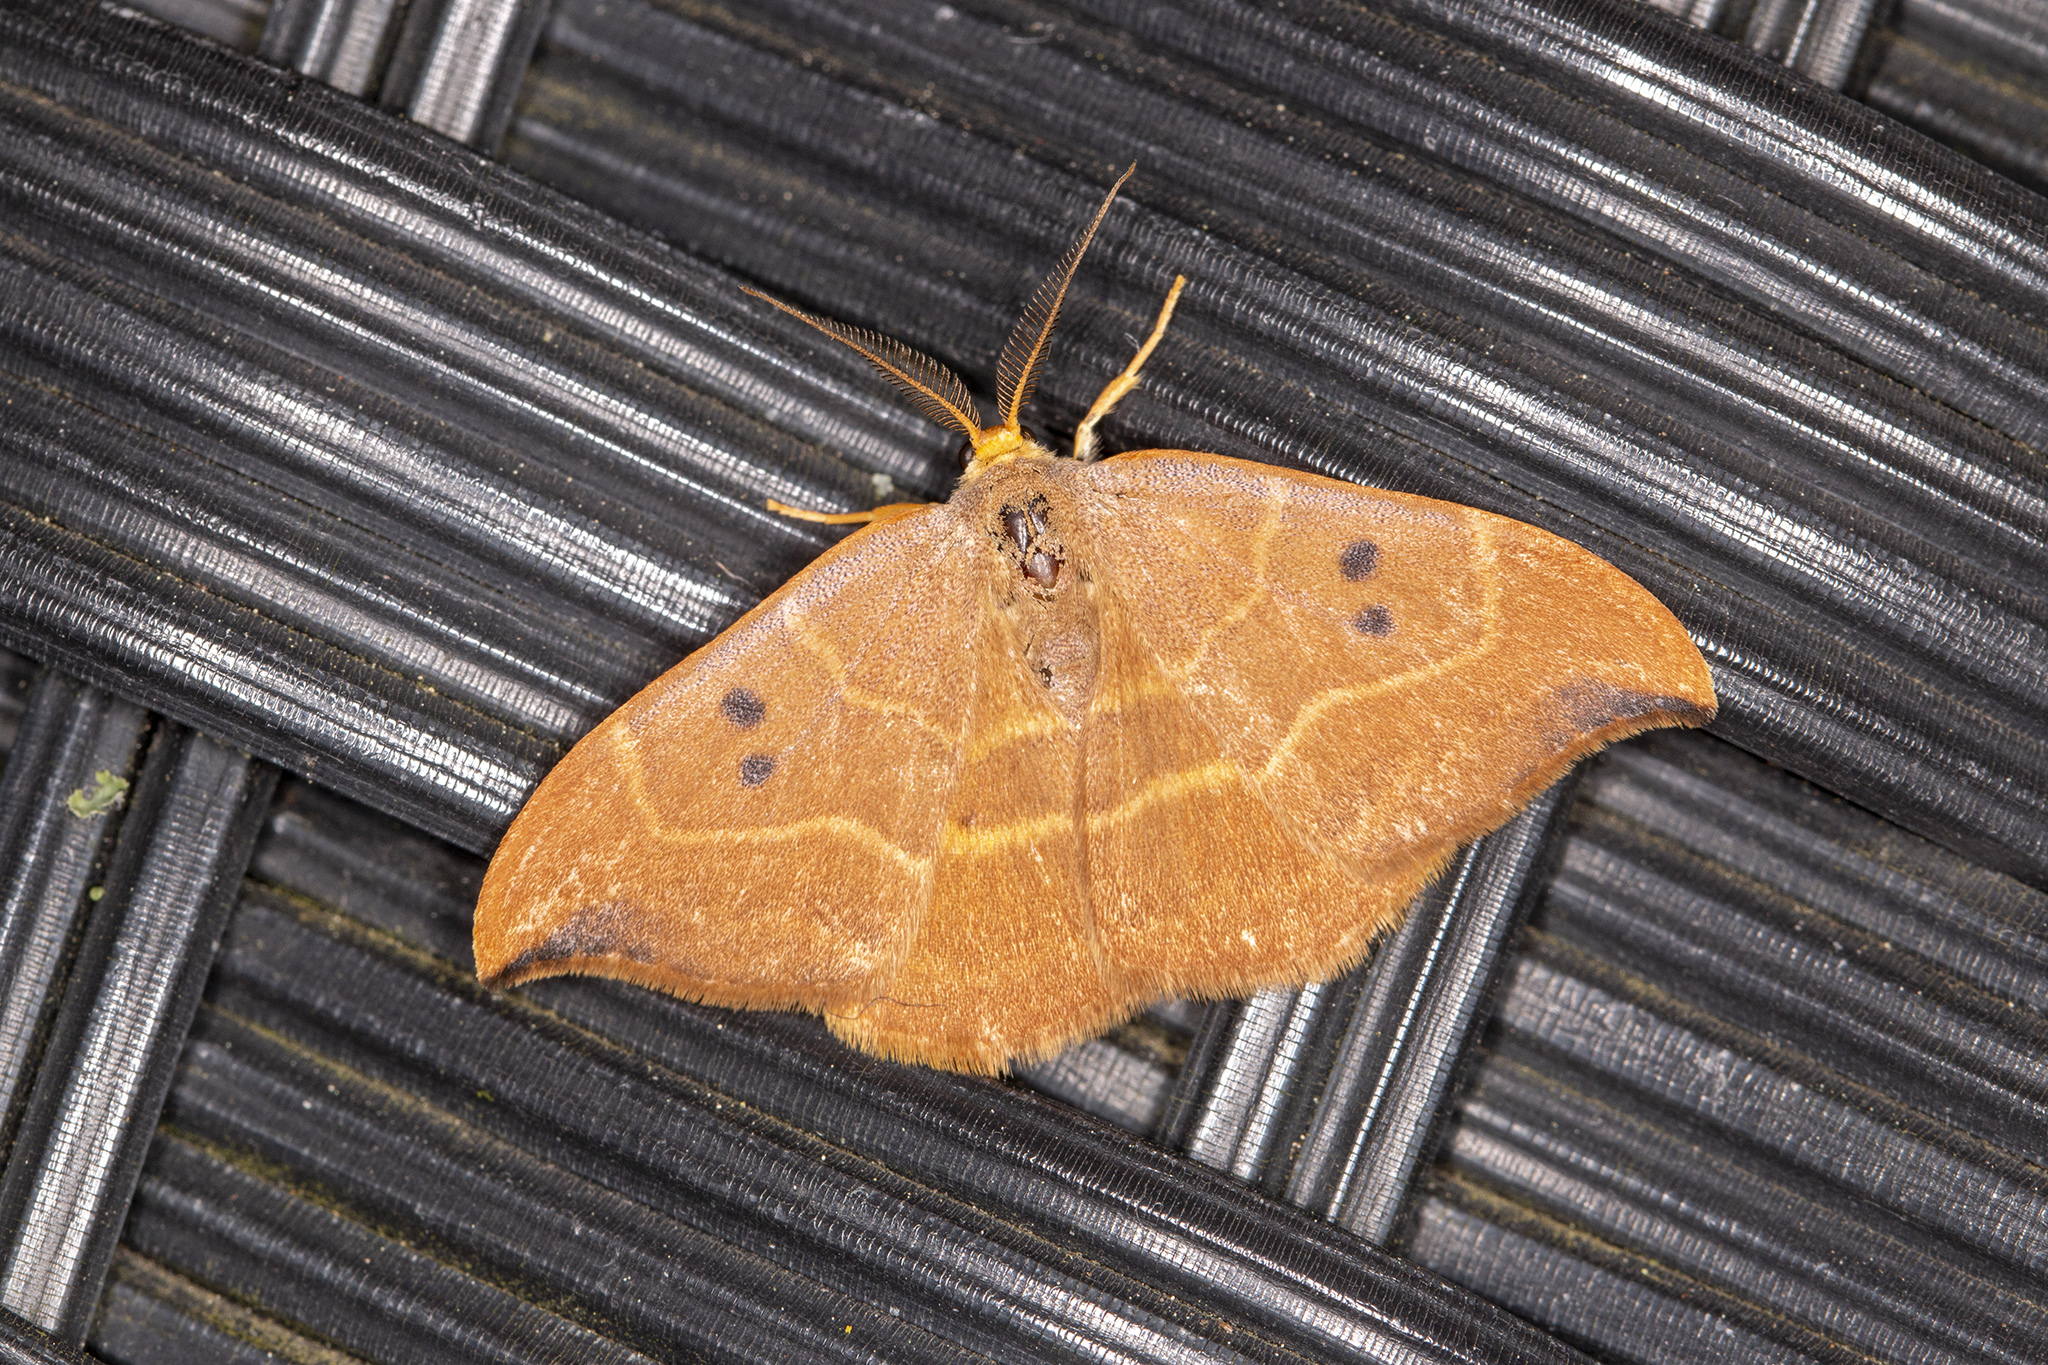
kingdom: Animalia
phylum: Arthropoda
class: Insecta
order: Lepidoptera
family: Drepanidae
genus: Watsonalla
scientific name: Watsonalla binaria
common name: Oak hook-tip
